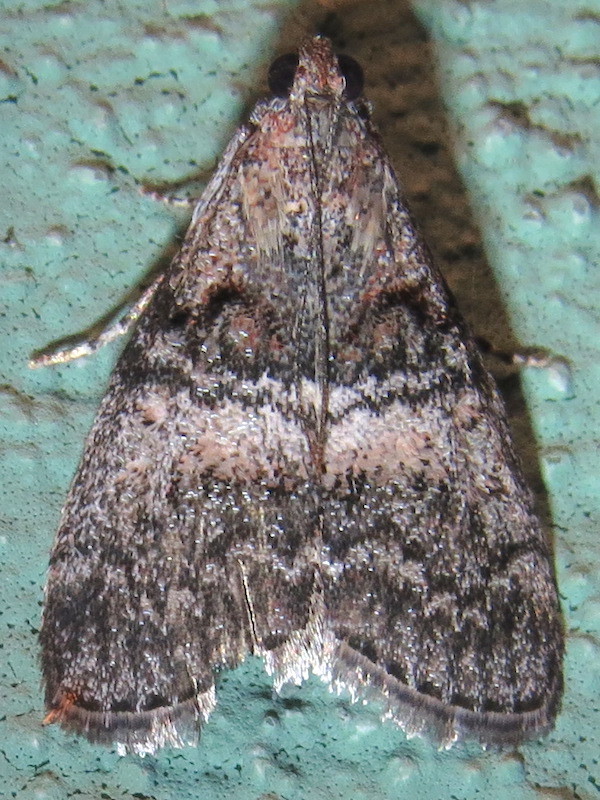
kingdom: Animalia
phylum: Arthropoda
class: Insecta
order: Lepidoptera
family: Pyralidae
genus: Pococera
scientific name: Pococera asperatella
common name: Maple webworm moth
